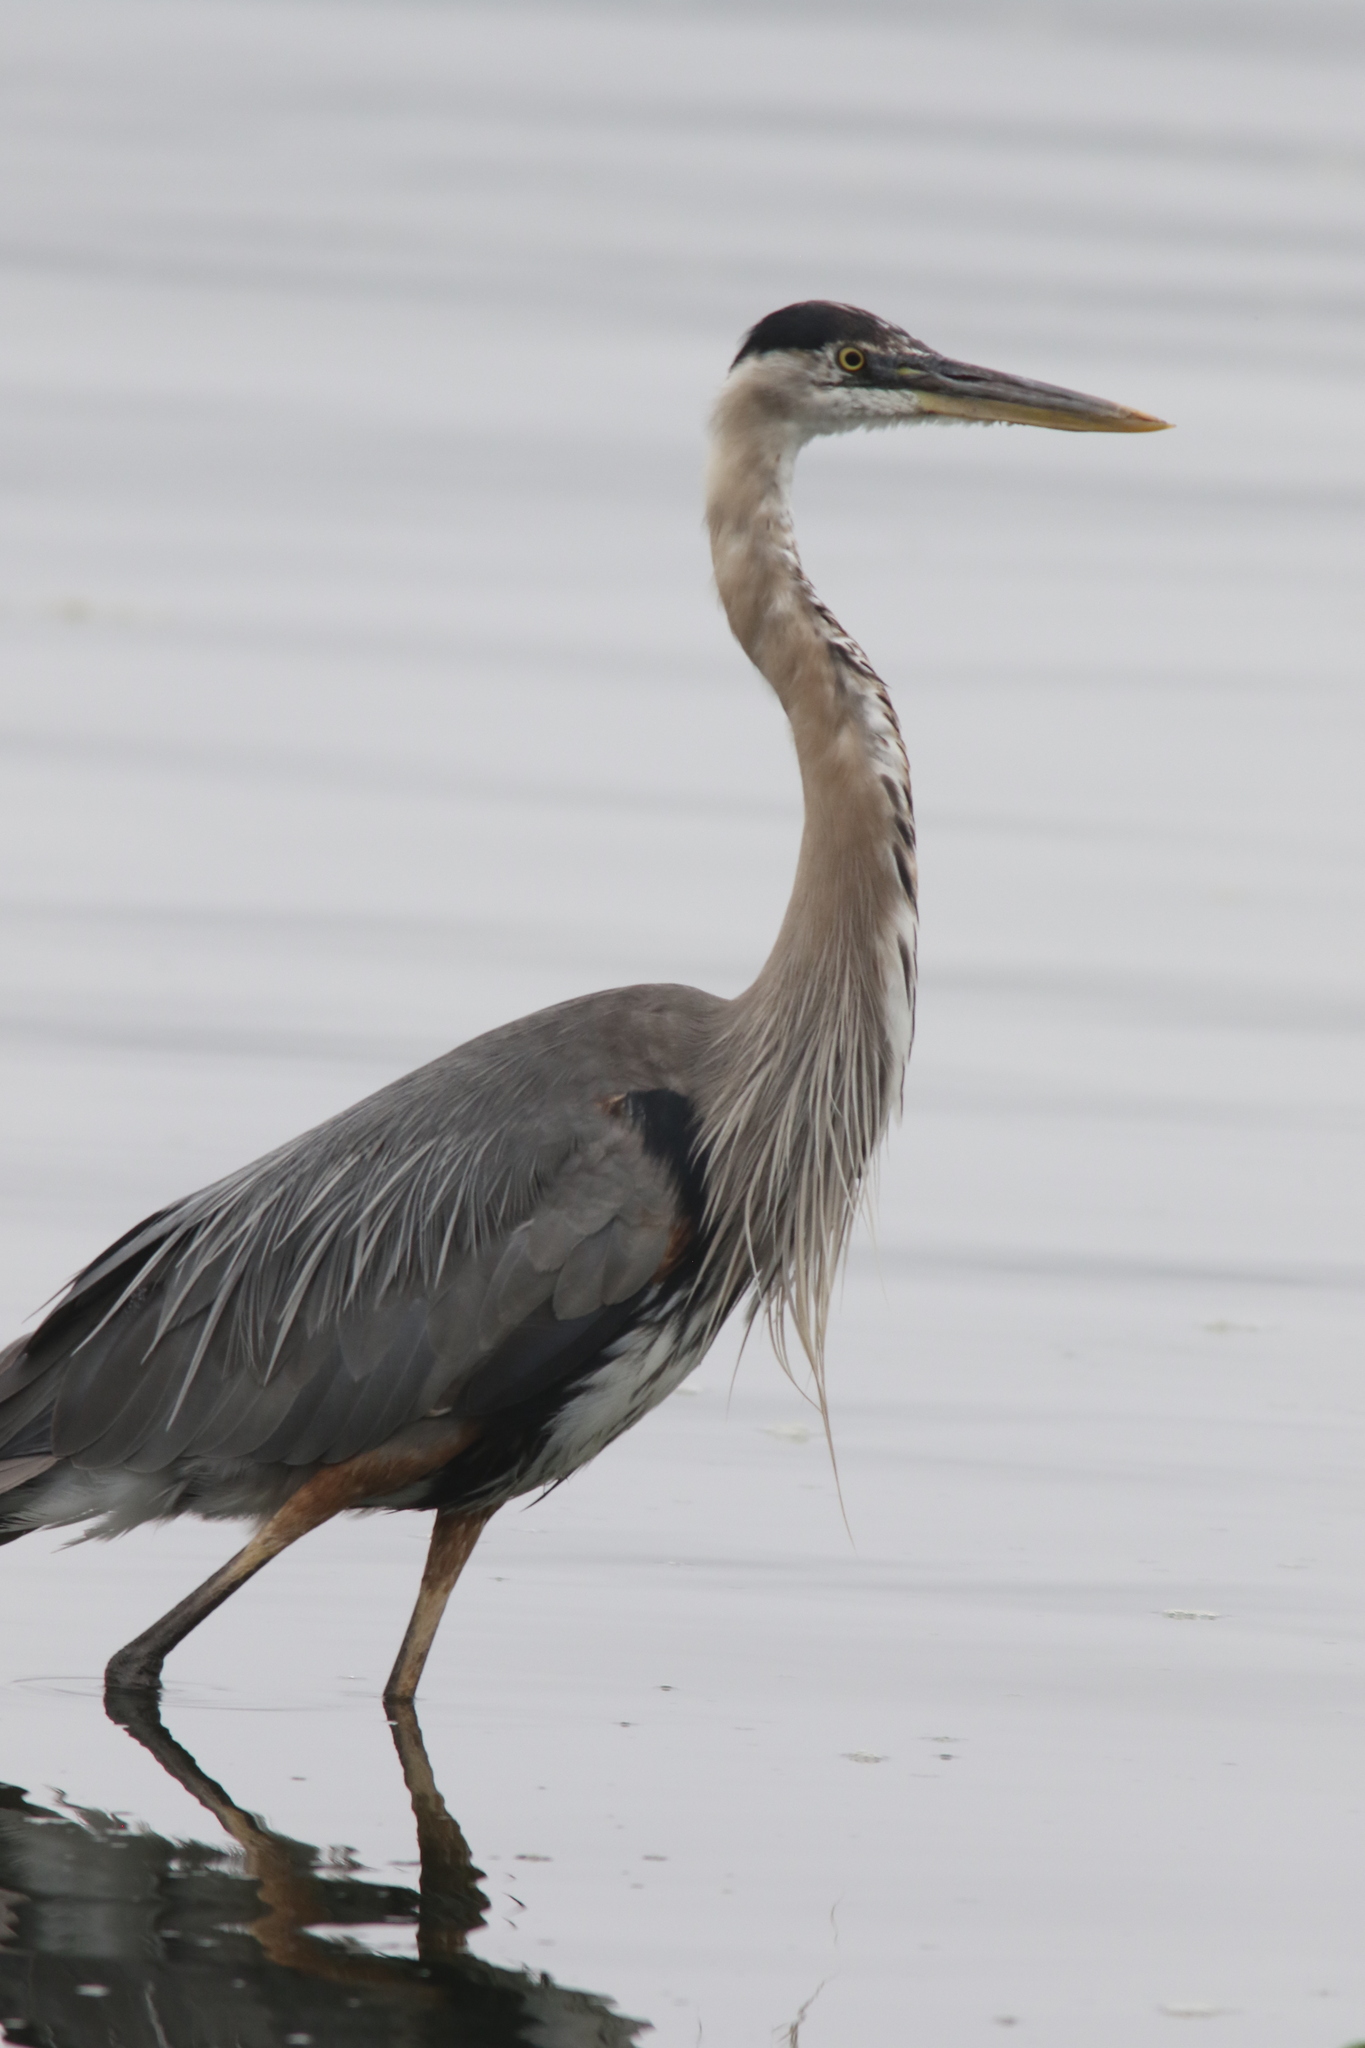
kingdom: Animalia
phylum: Chordata
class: Aves
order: Pelecaniformes
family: Ardeidae
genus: Ardea
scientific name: Ardea herodias
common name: Great blue heron
